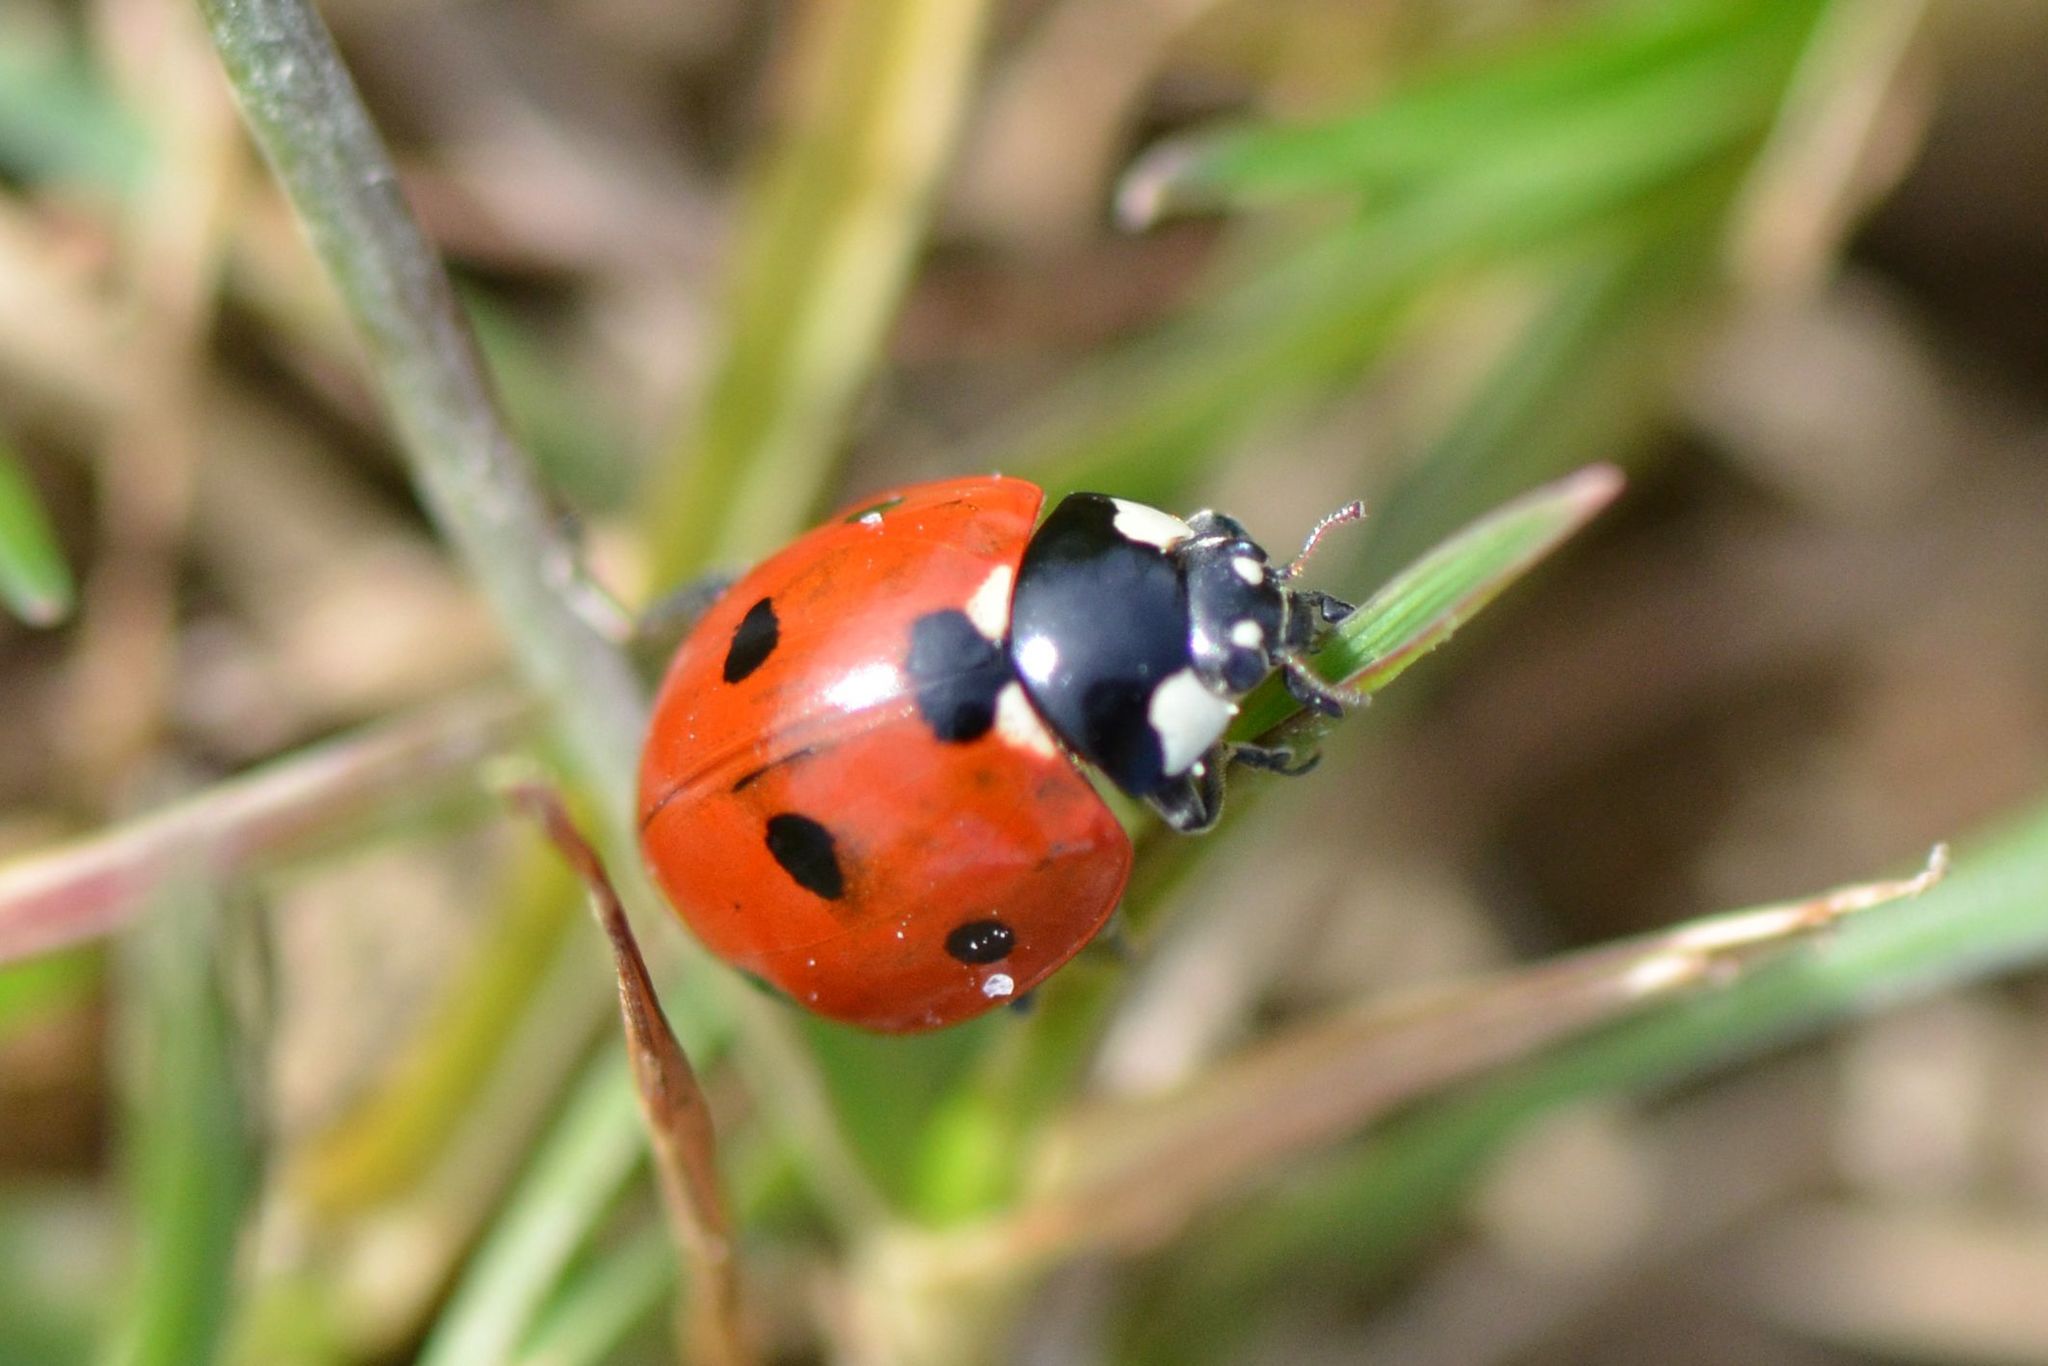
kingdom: Animalia
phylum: Arthropoda
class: Insecta
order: Coleoptera
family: Coccinellidae
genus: Coccinella
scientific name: Coccinella septempunctata
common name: Sevenspotted lady beetle
